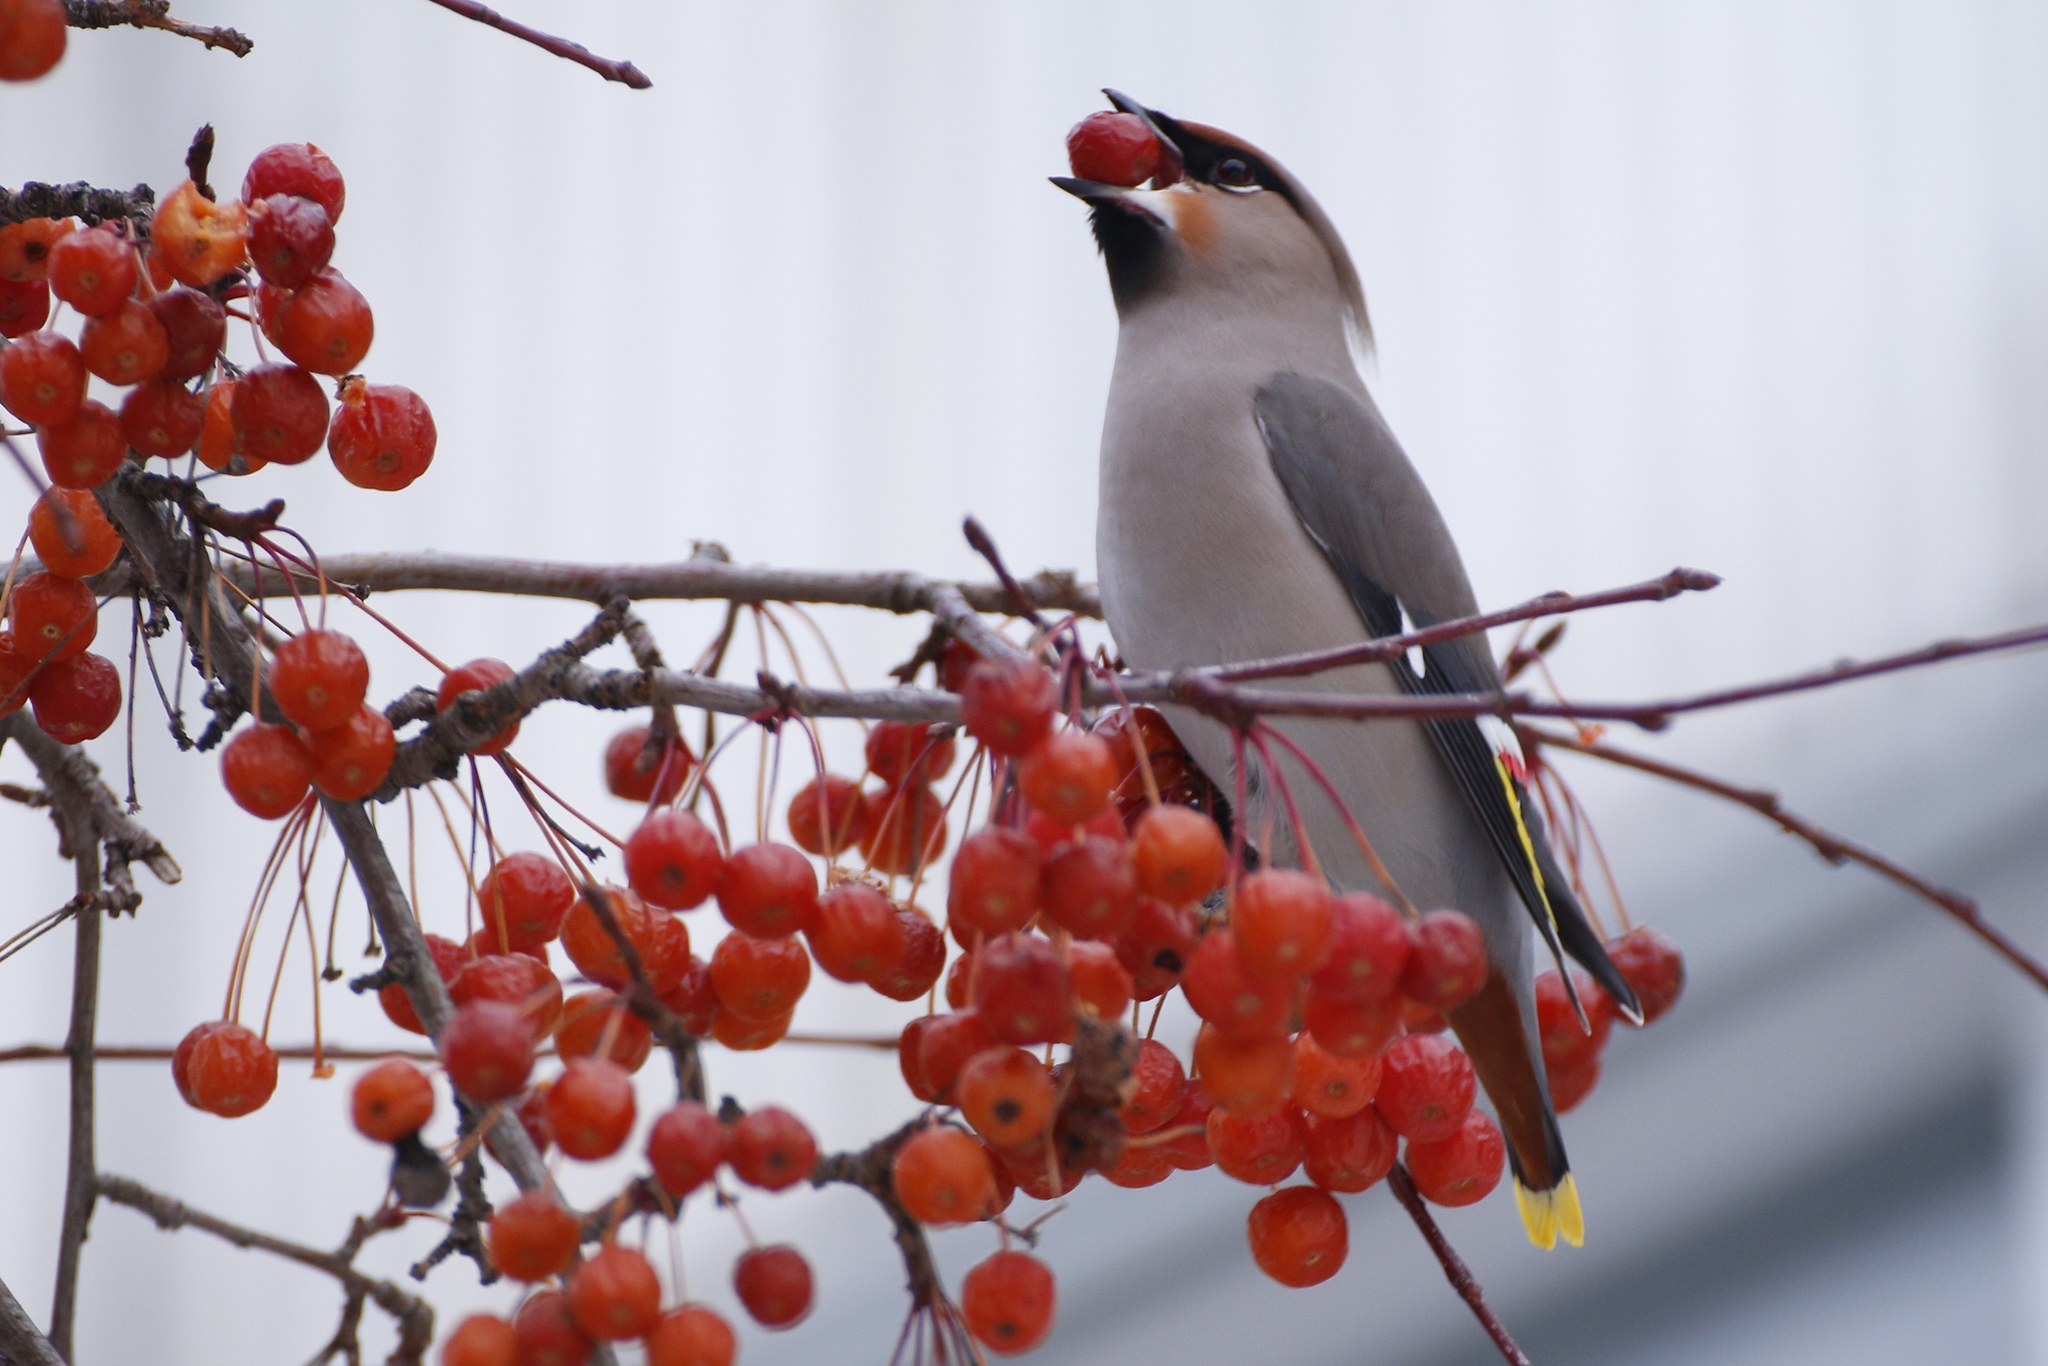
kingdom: Animalia
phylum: Chordata
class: Aves
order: Passeriformes
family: Bombycillidae
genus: Bombycilla
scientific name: Bombycilla garrulus
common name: Bohemian waxwing
